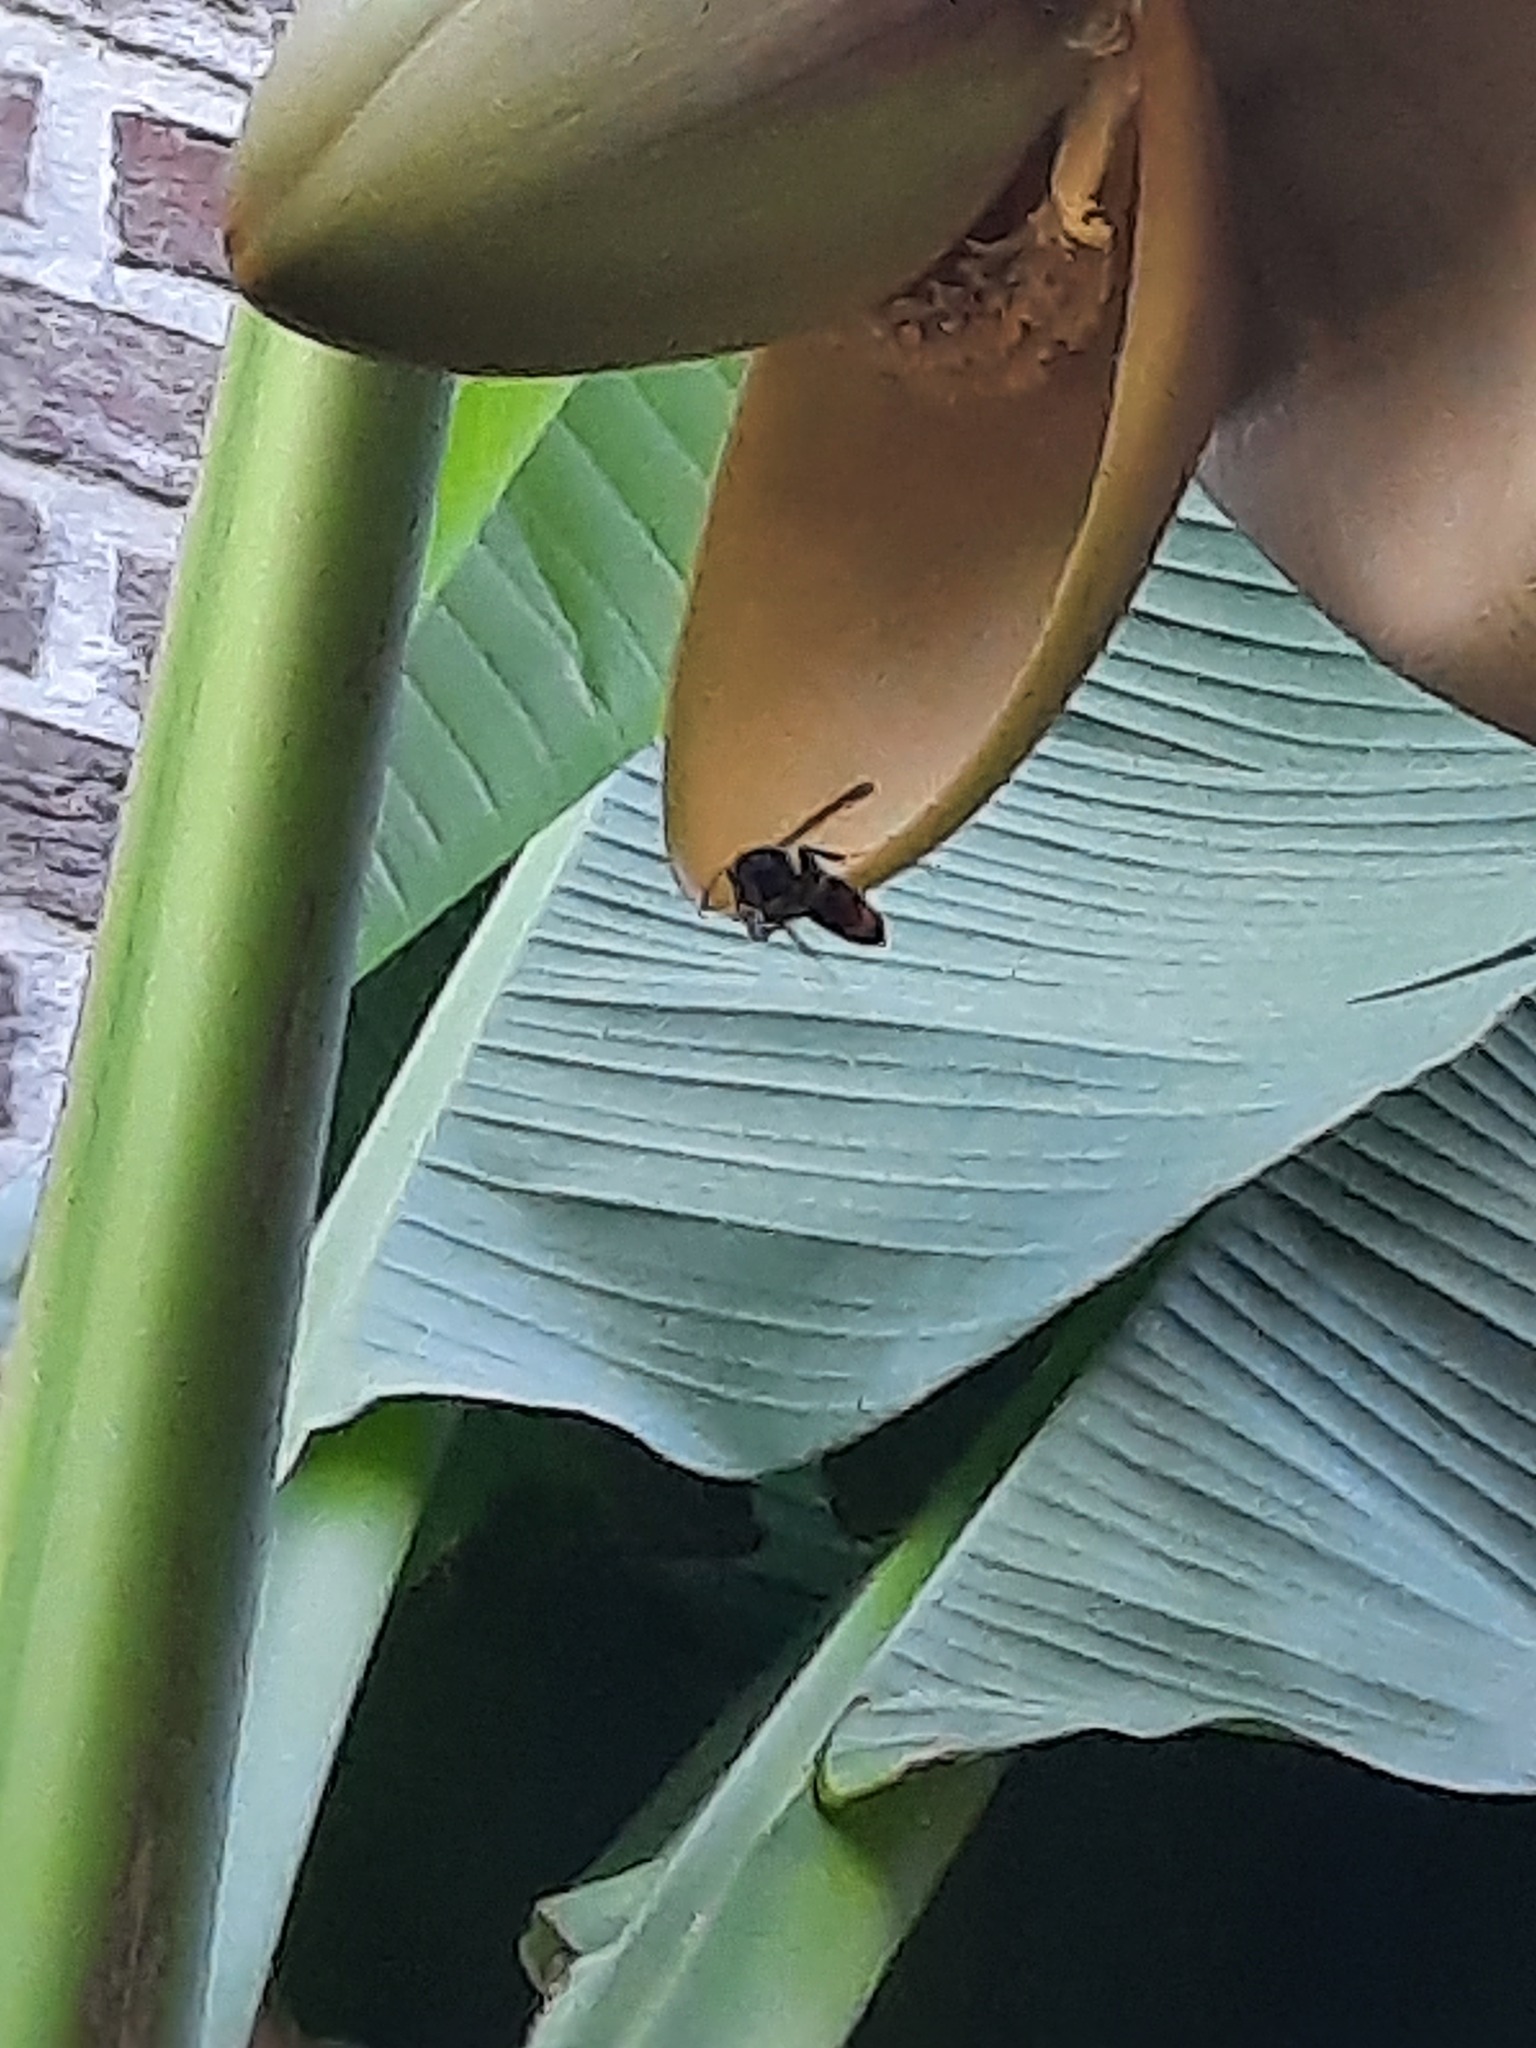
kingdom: Animalia
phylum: Arthropoda
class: Insecta
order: Hymenoptera
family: Vespidae
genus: Vespa
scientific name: Vespa velutina
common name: Asian hornet
